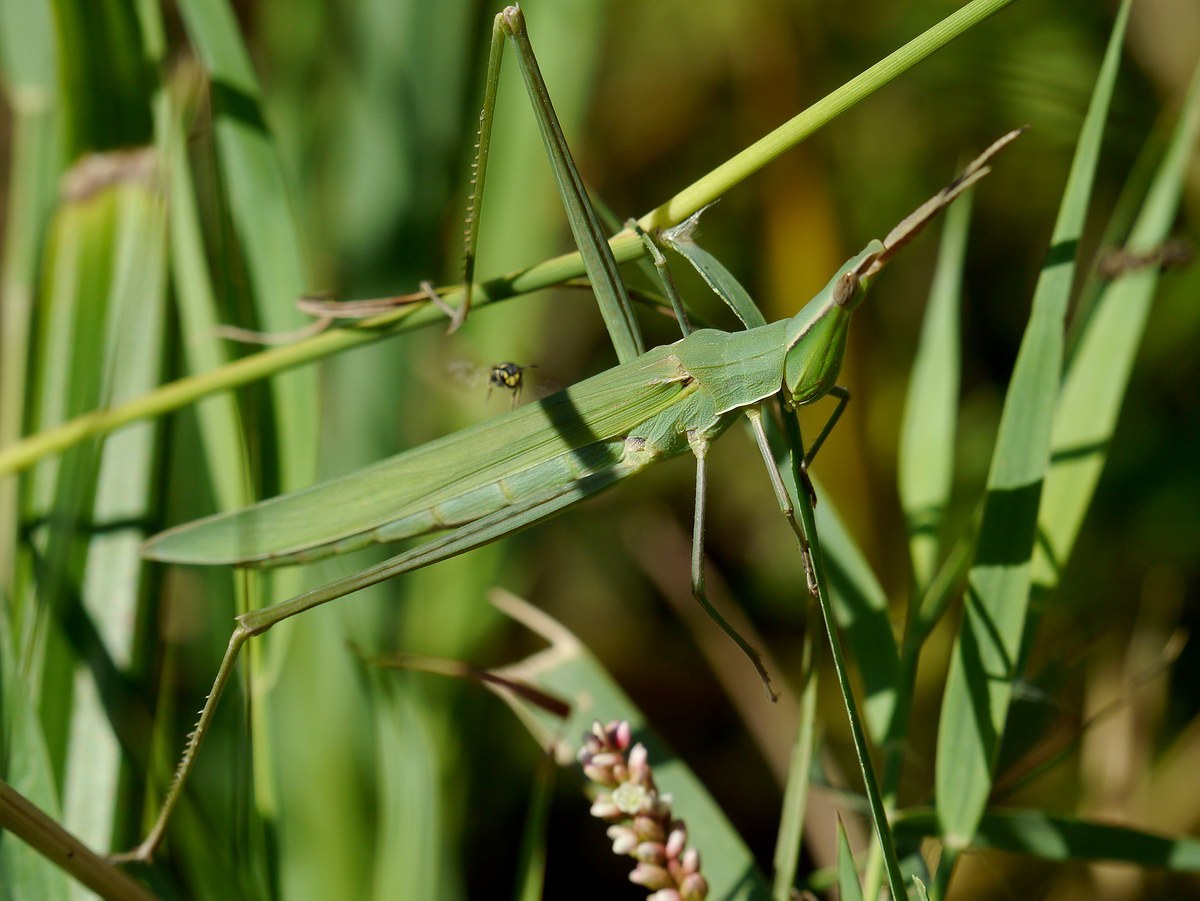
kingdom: Animalia
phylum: Arthropoda
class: Insecta
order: Orthoptera
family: Acrididae
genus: Acrida
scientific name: Acrida ungarica
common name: Common cone-headed grasshopper
